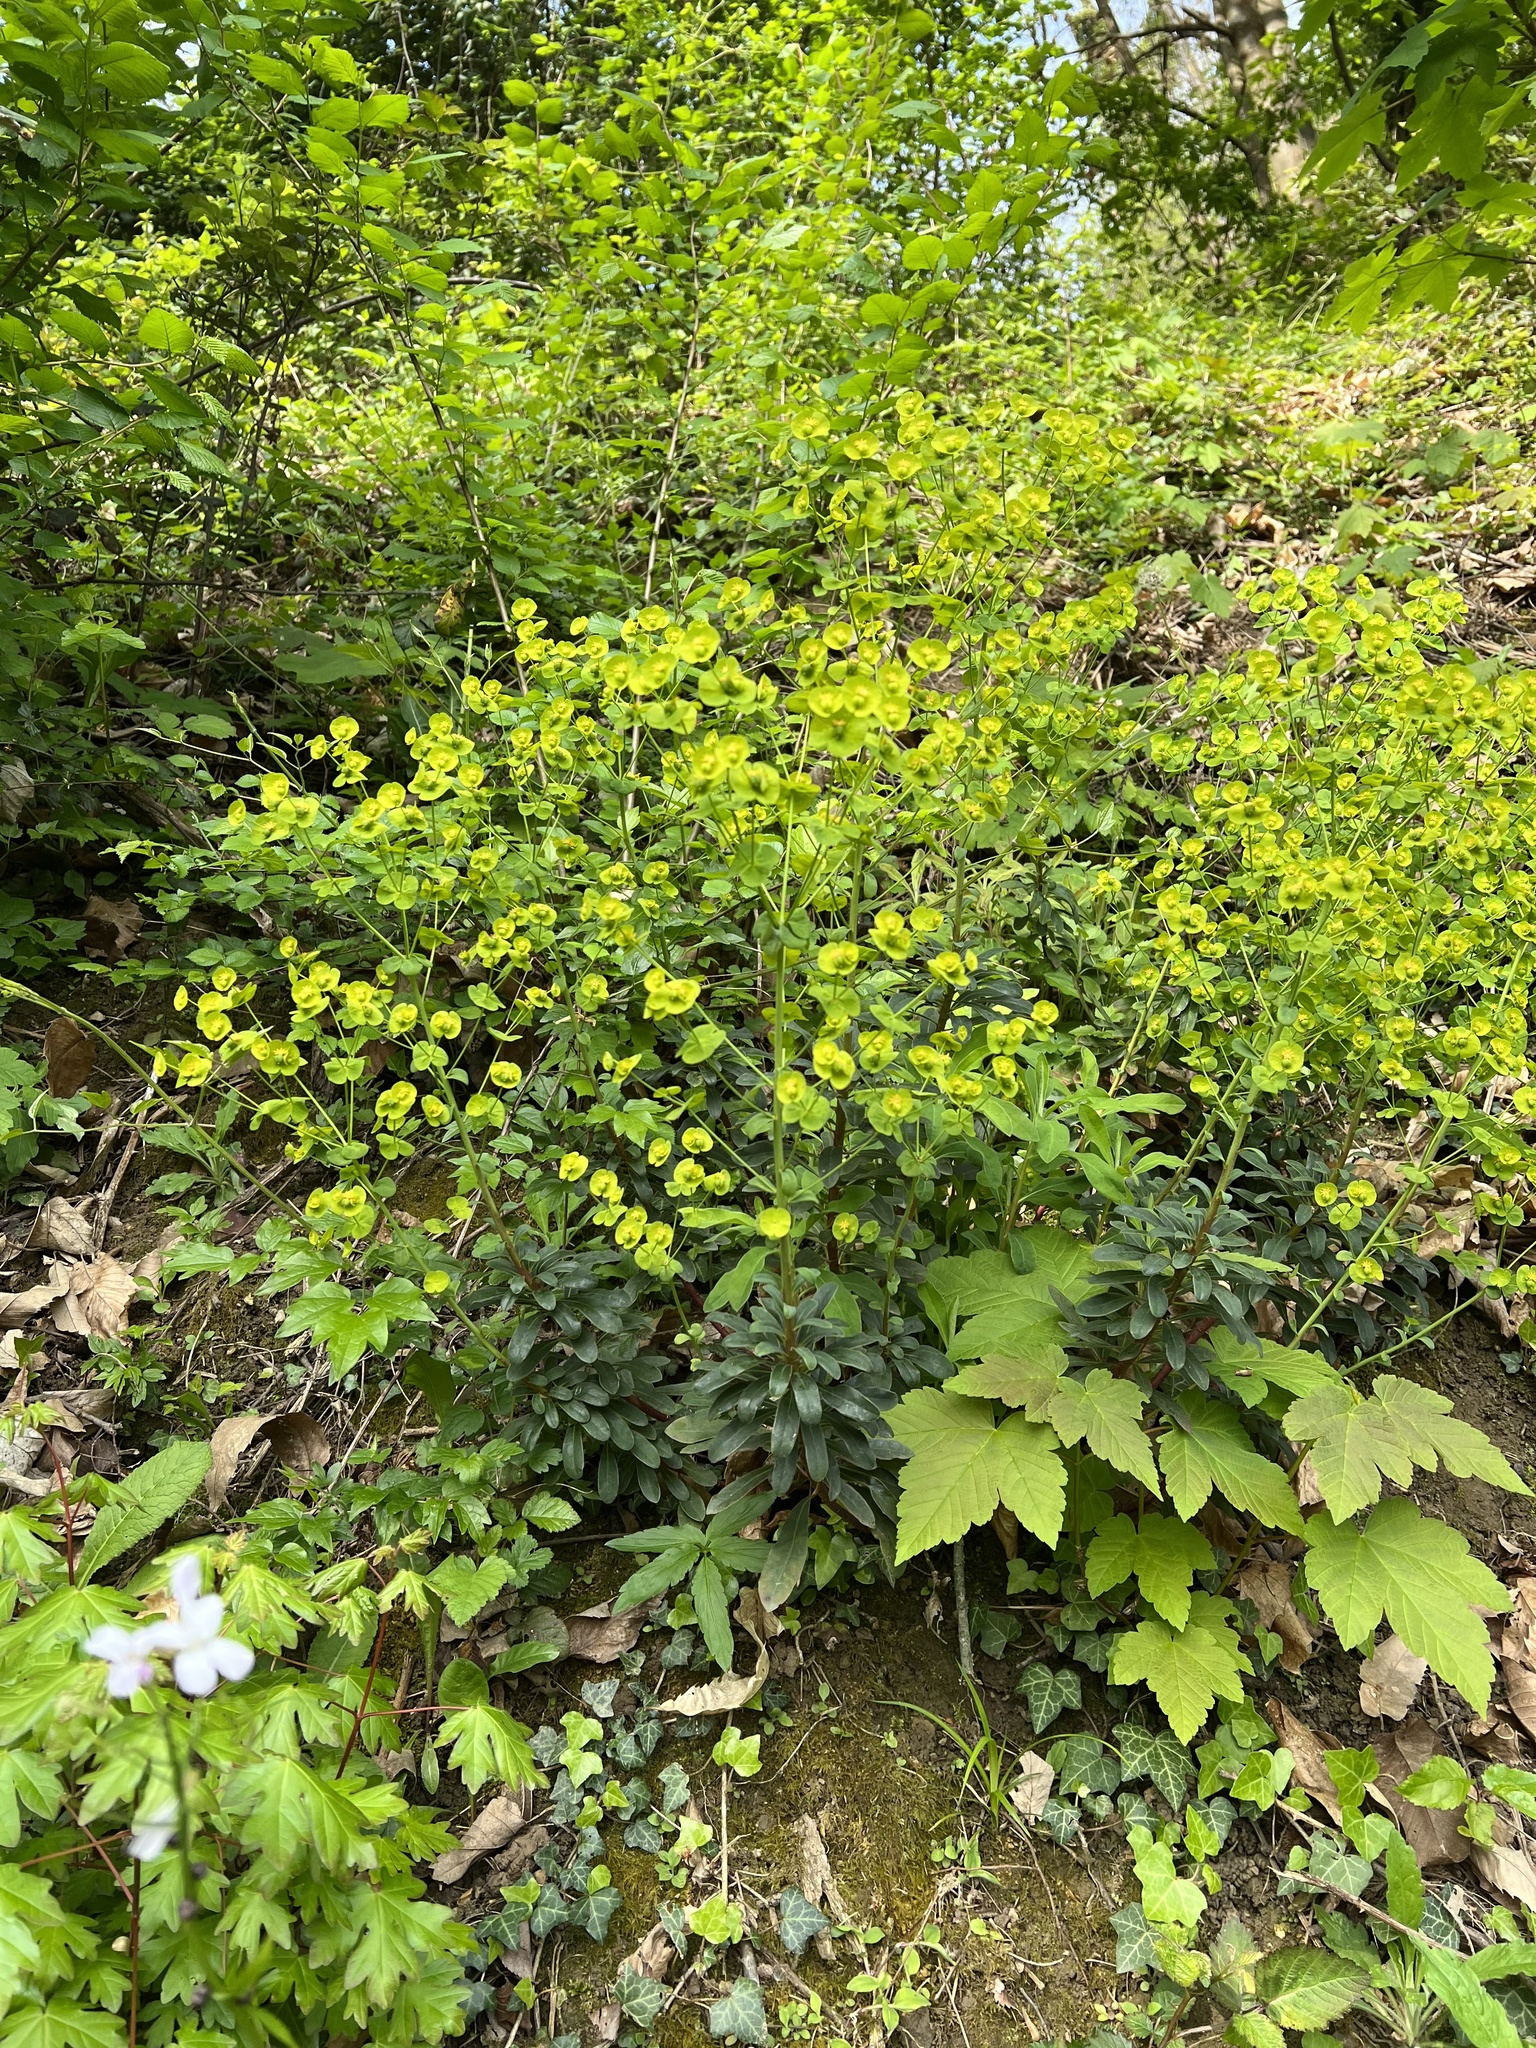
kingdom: Plantae
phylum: Tracheophyta
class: Magnoliopsida
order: Malpighiales
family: Euphorbiaceae
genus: Euphorbia
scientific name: Euphorbia cyparissias
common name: Cypress spurge
